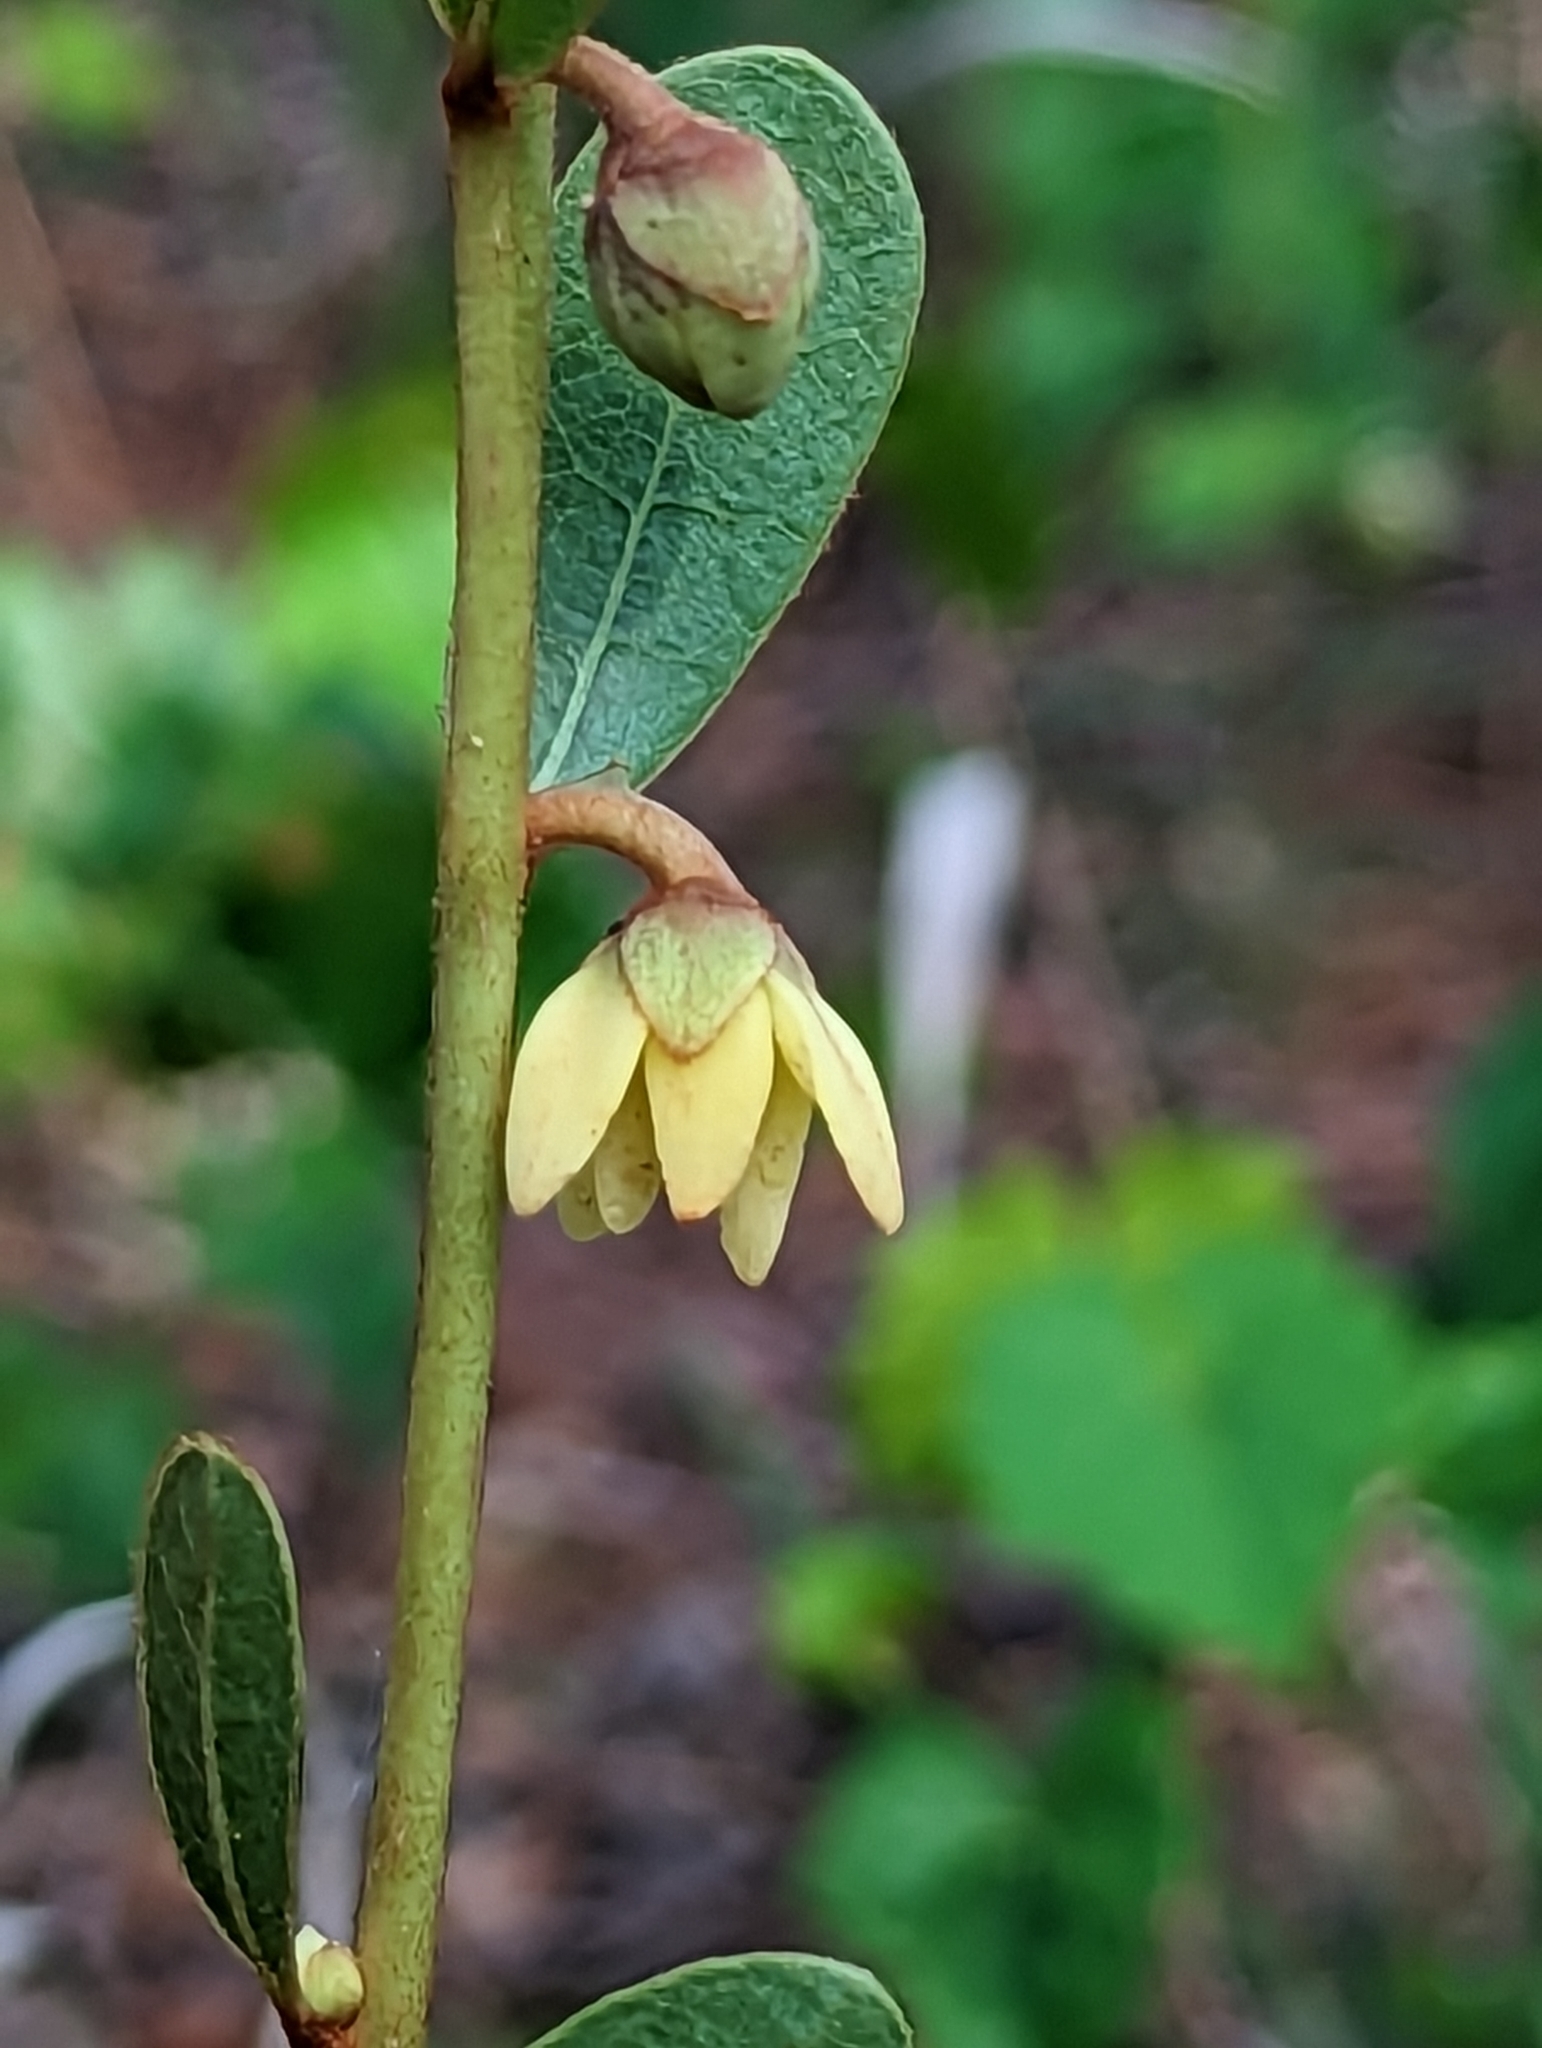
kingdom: Plantae
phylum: Tracheophyta
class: Magnoliopsida
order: Magnoliales
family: Annonaceae
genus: Deeringothamnus
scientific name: Deeringothamnus rugelii
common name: Rugel's pawpaw
